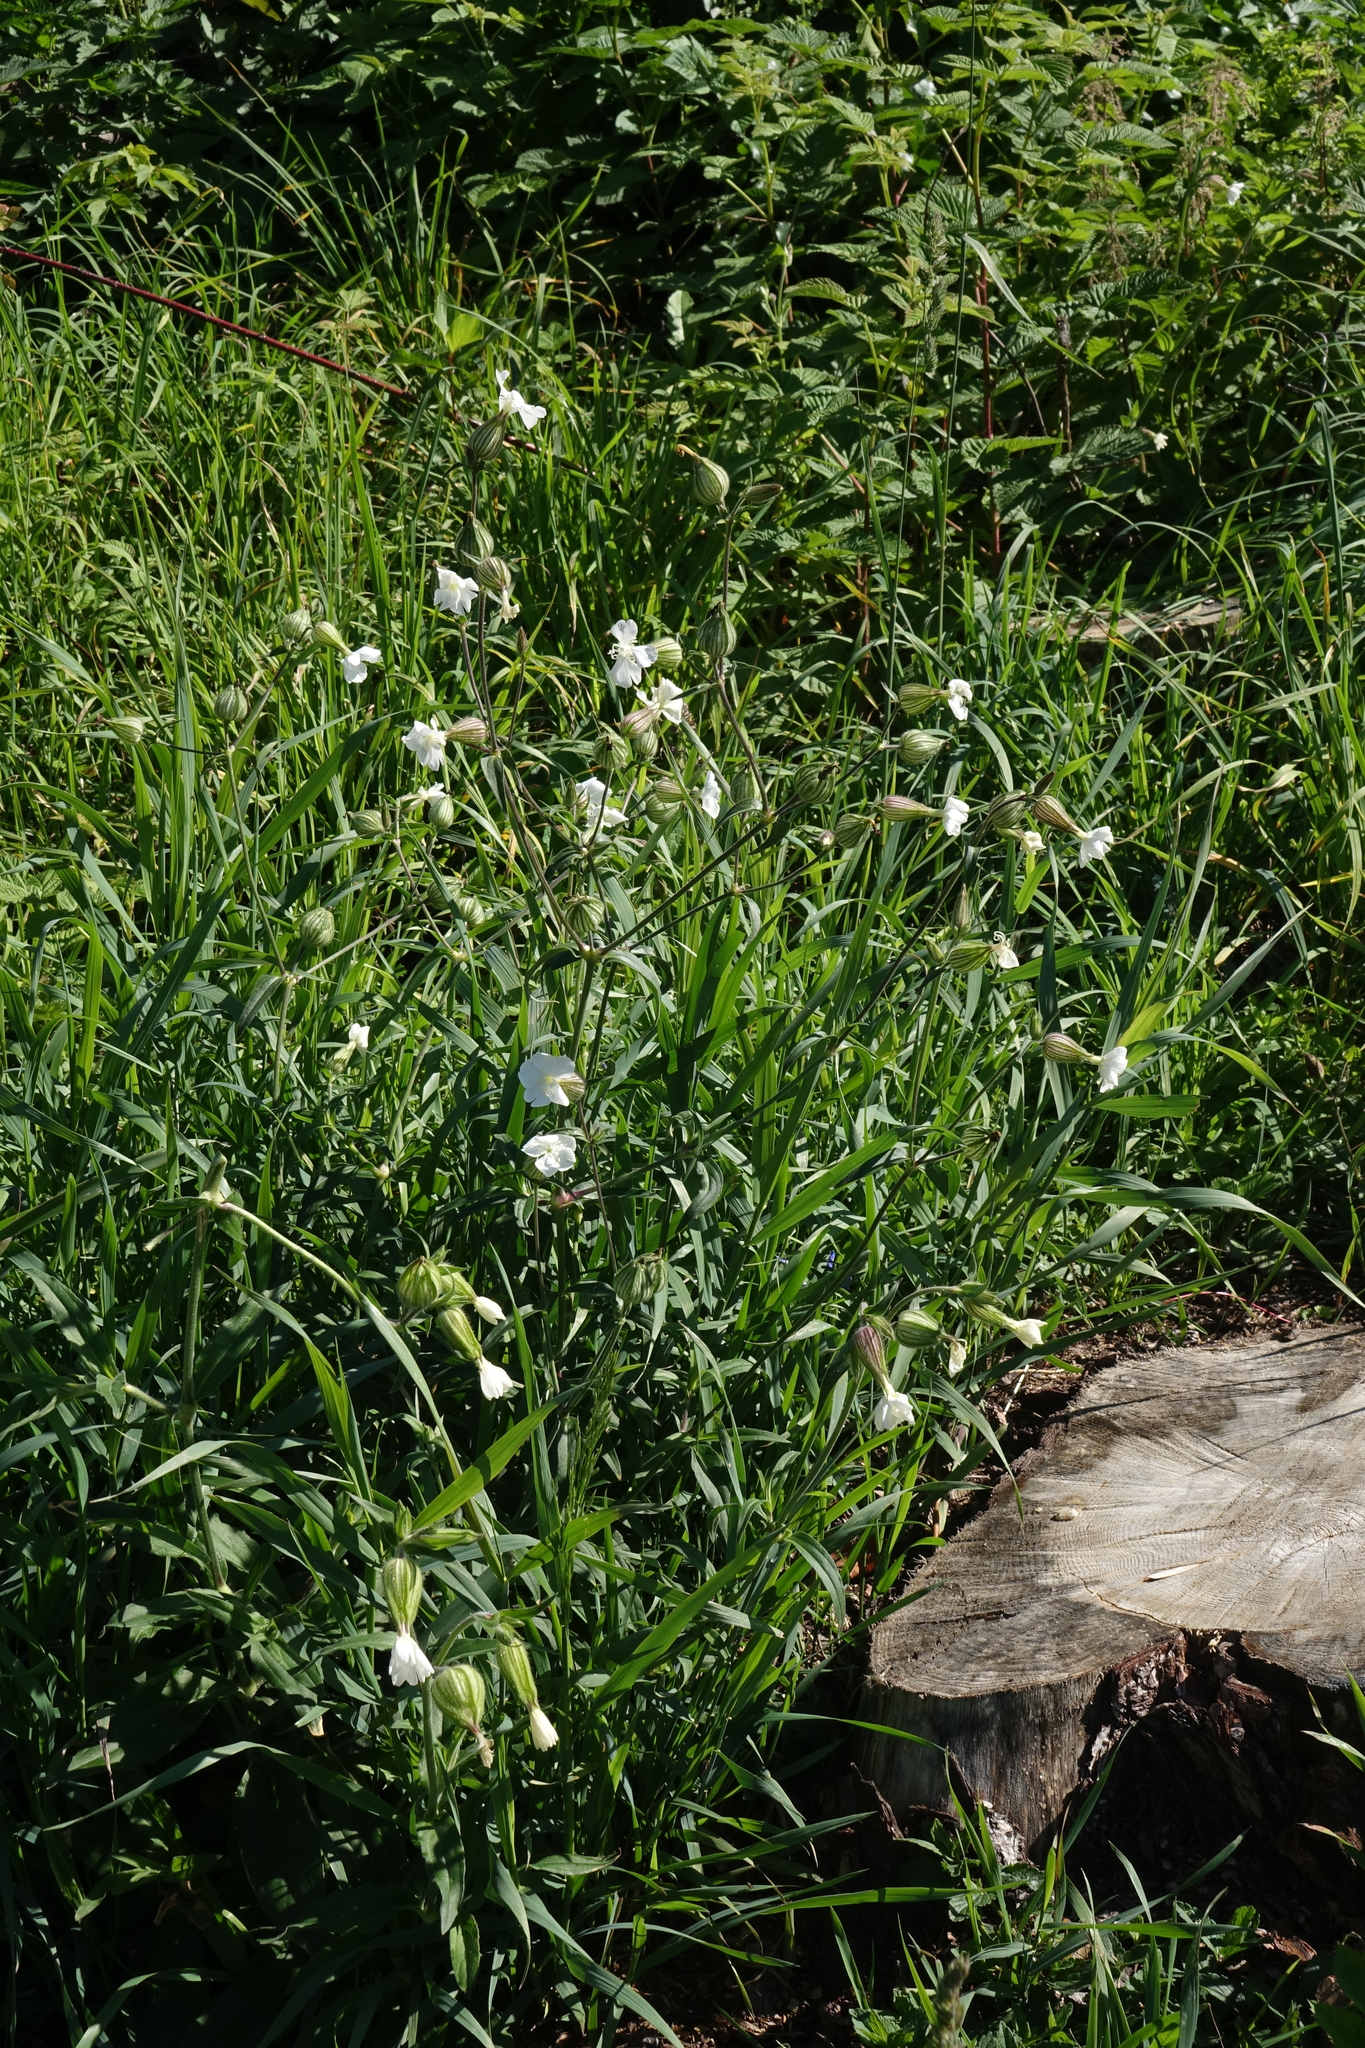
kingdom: Plantae
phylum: Tracheophyta
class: Magnoliopsida
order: Caryophyllales
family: Caryophyllaceae
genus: Silene
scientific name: Silene latifolia
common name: White campion
